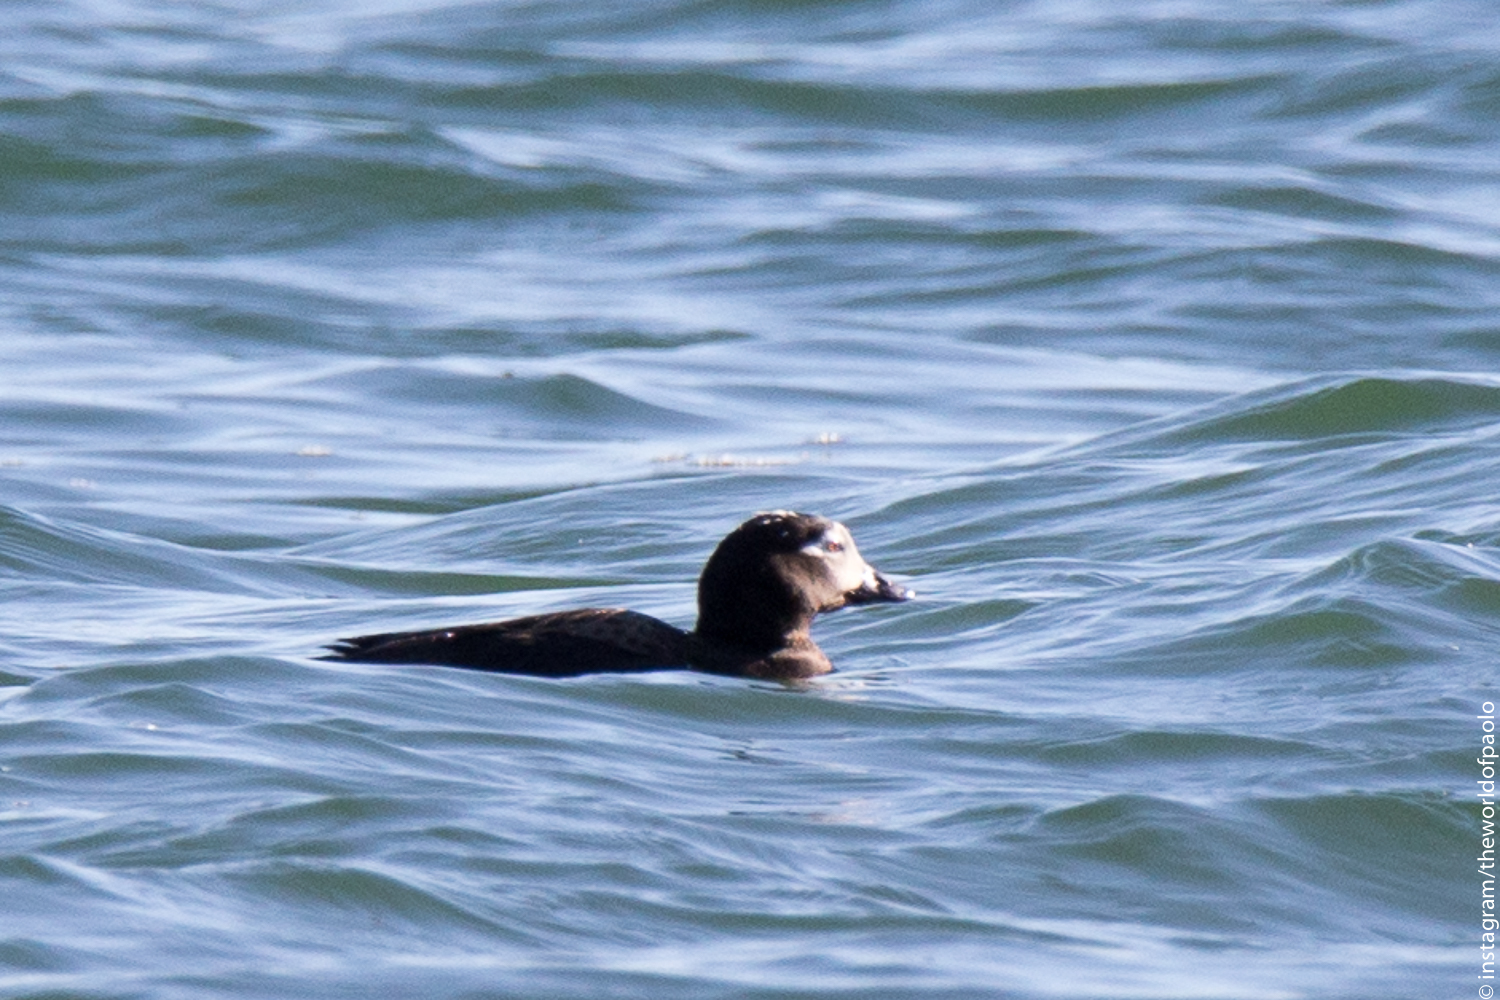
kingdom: Animalia
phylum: Chordata
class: Aves
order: Anseriformes
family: Anatidae
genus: Clangula
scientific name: Clangula hyemalis
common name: Long-tailed duck
